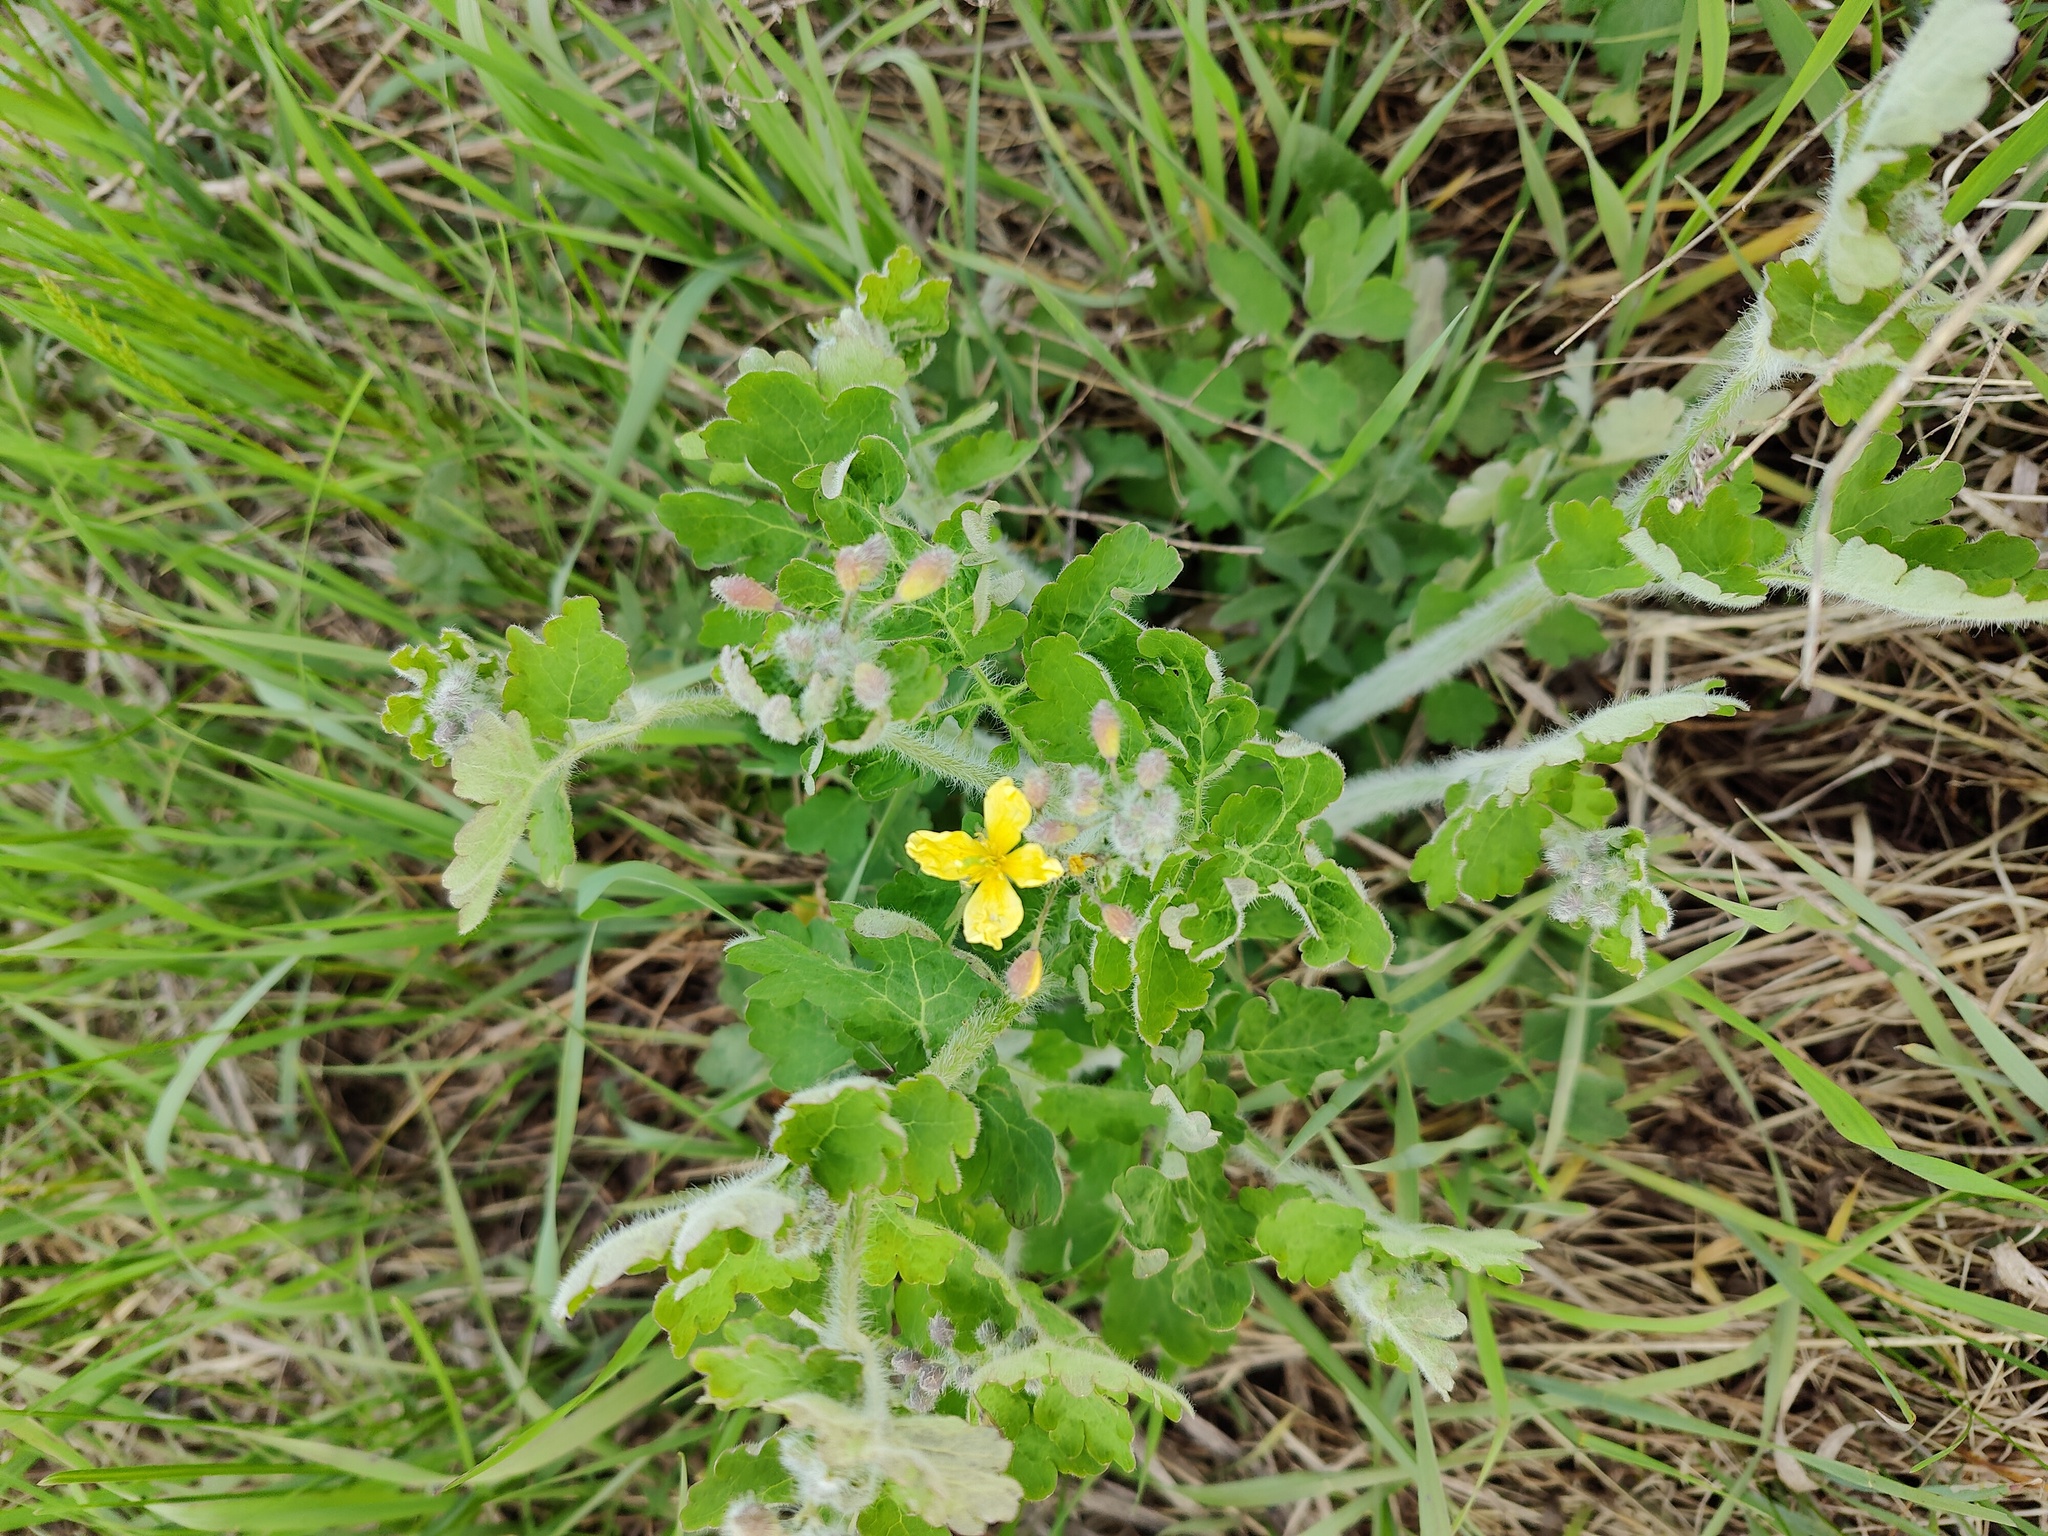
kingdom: Plantae
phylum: Tracheophyta
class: Magnoliopsida
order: Ranunculales
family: Papaveraceae
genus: Chelidonium
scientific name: Chelidonium majus
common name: Greater celandine
